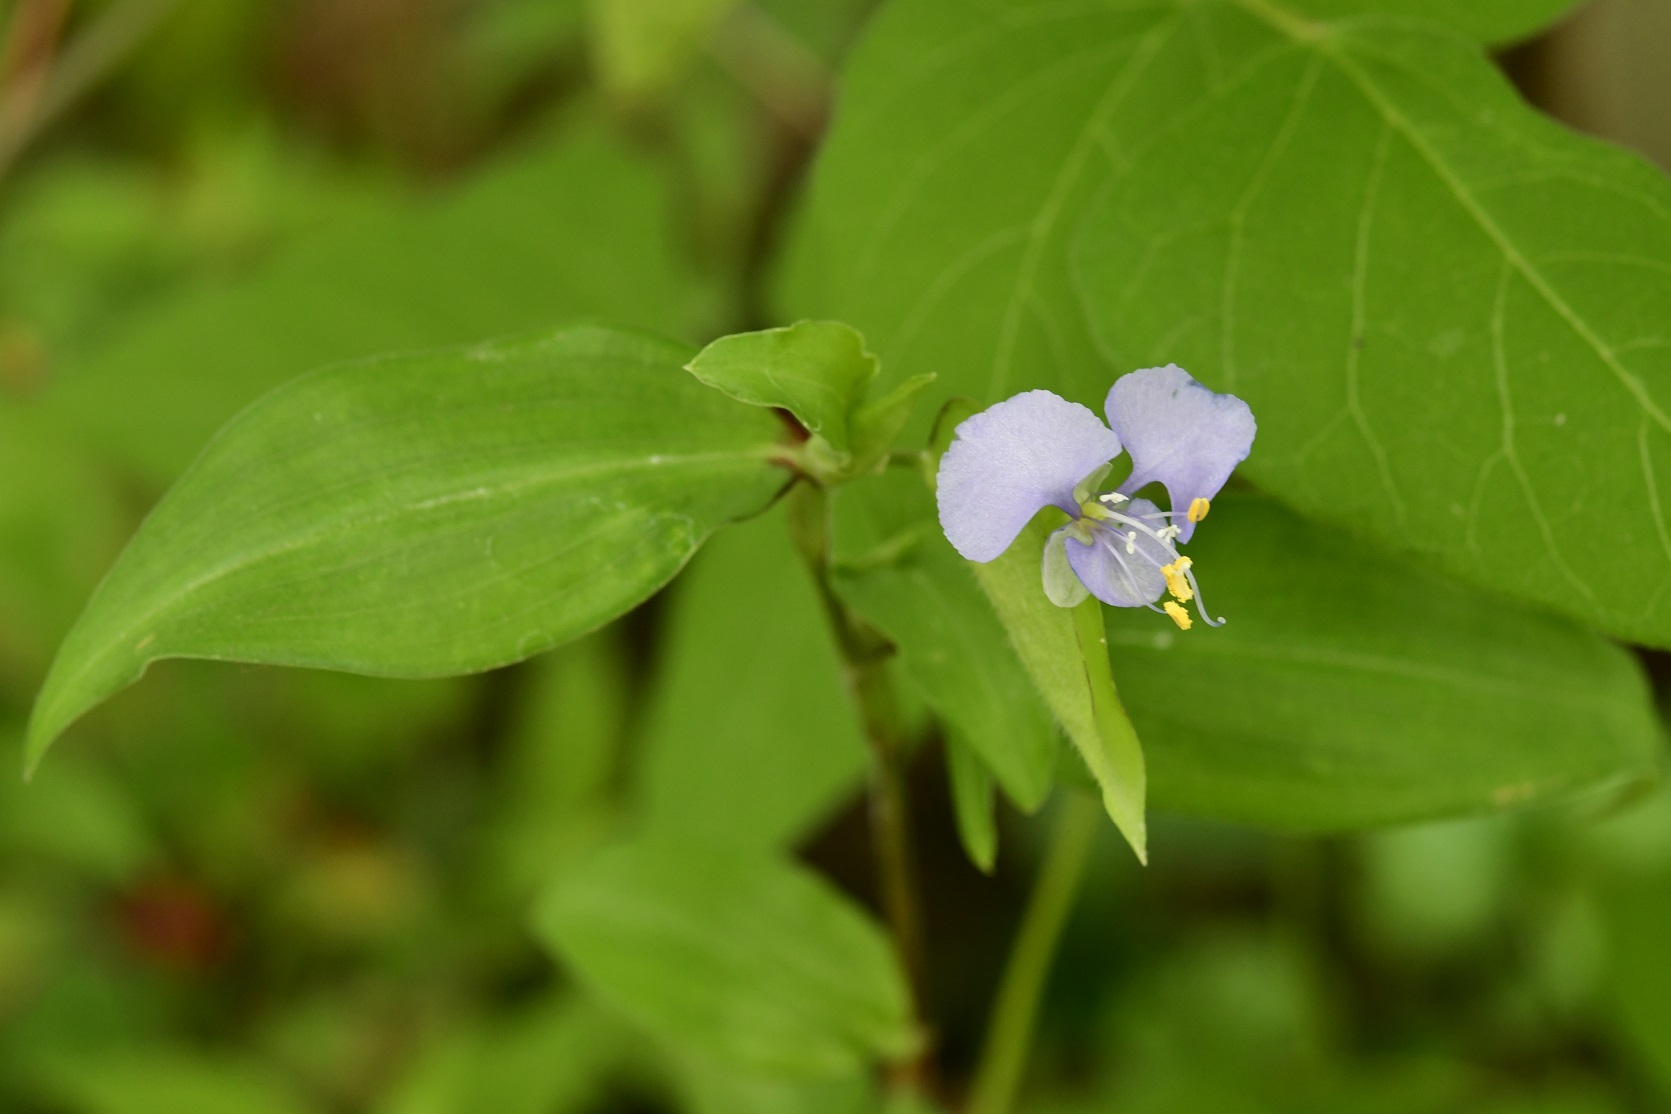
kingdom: Plantae
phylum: Tracheophyta
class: Liliopsida
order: Commelinales
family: Commelinaceae
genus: Commelina
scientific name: Commelina diffusa
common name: Climbing dayflower
